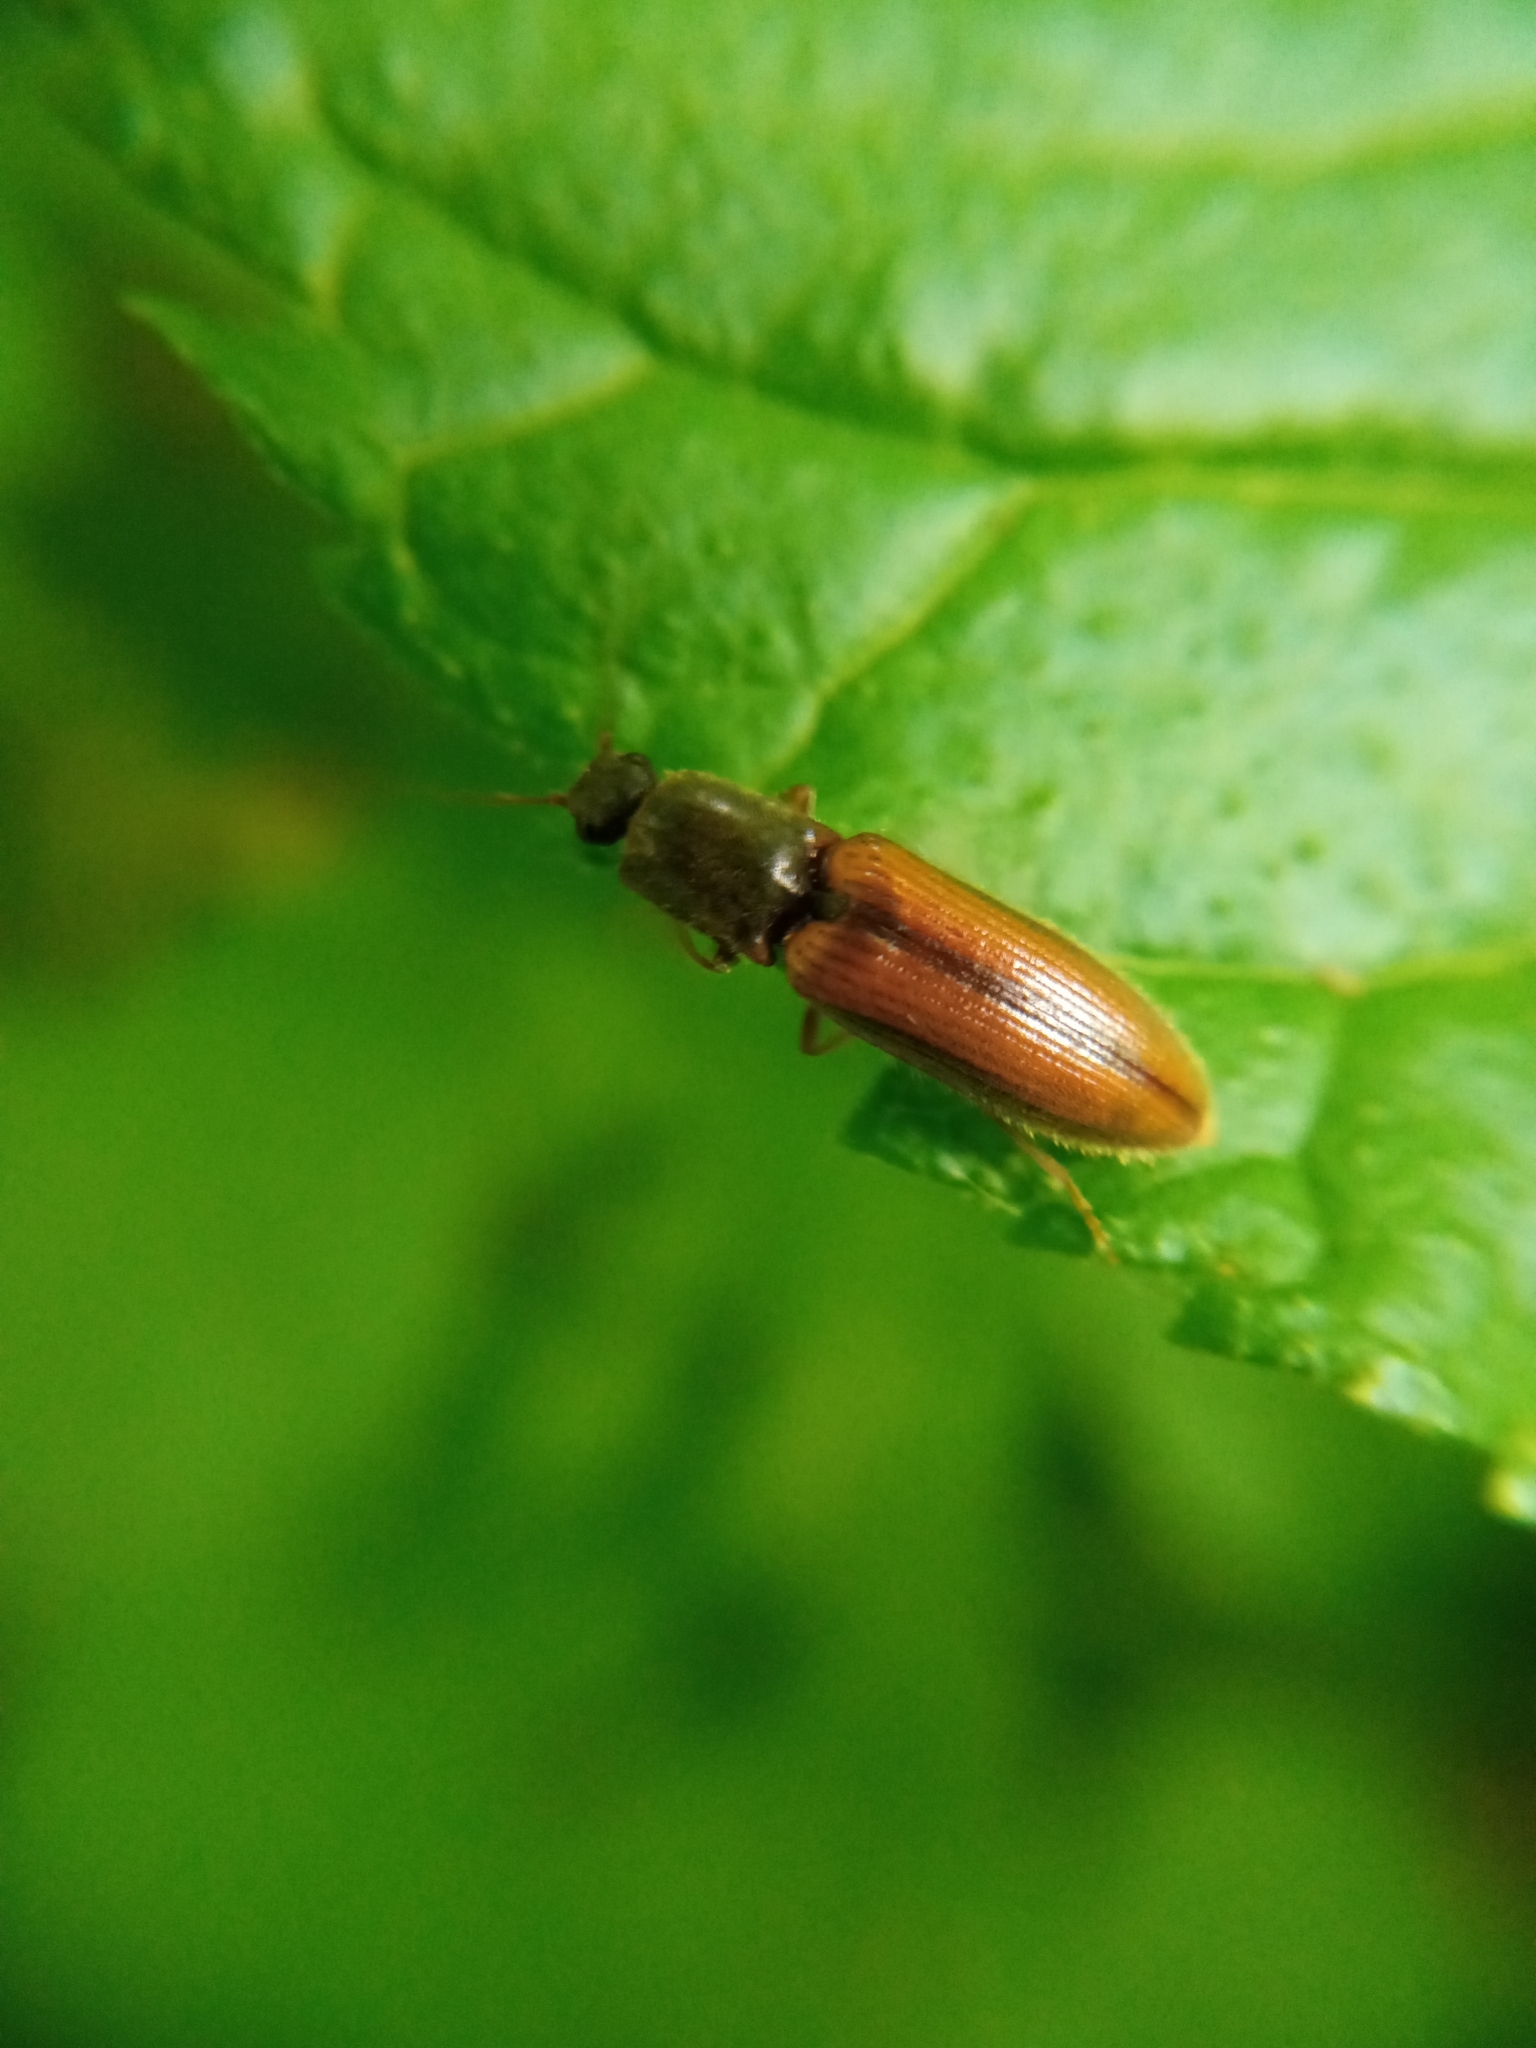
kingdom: Animalia
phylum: Arthropoda
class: Insecta
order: Coleoptera
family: Elateridae
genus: Athous
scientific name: Athous vittatus
